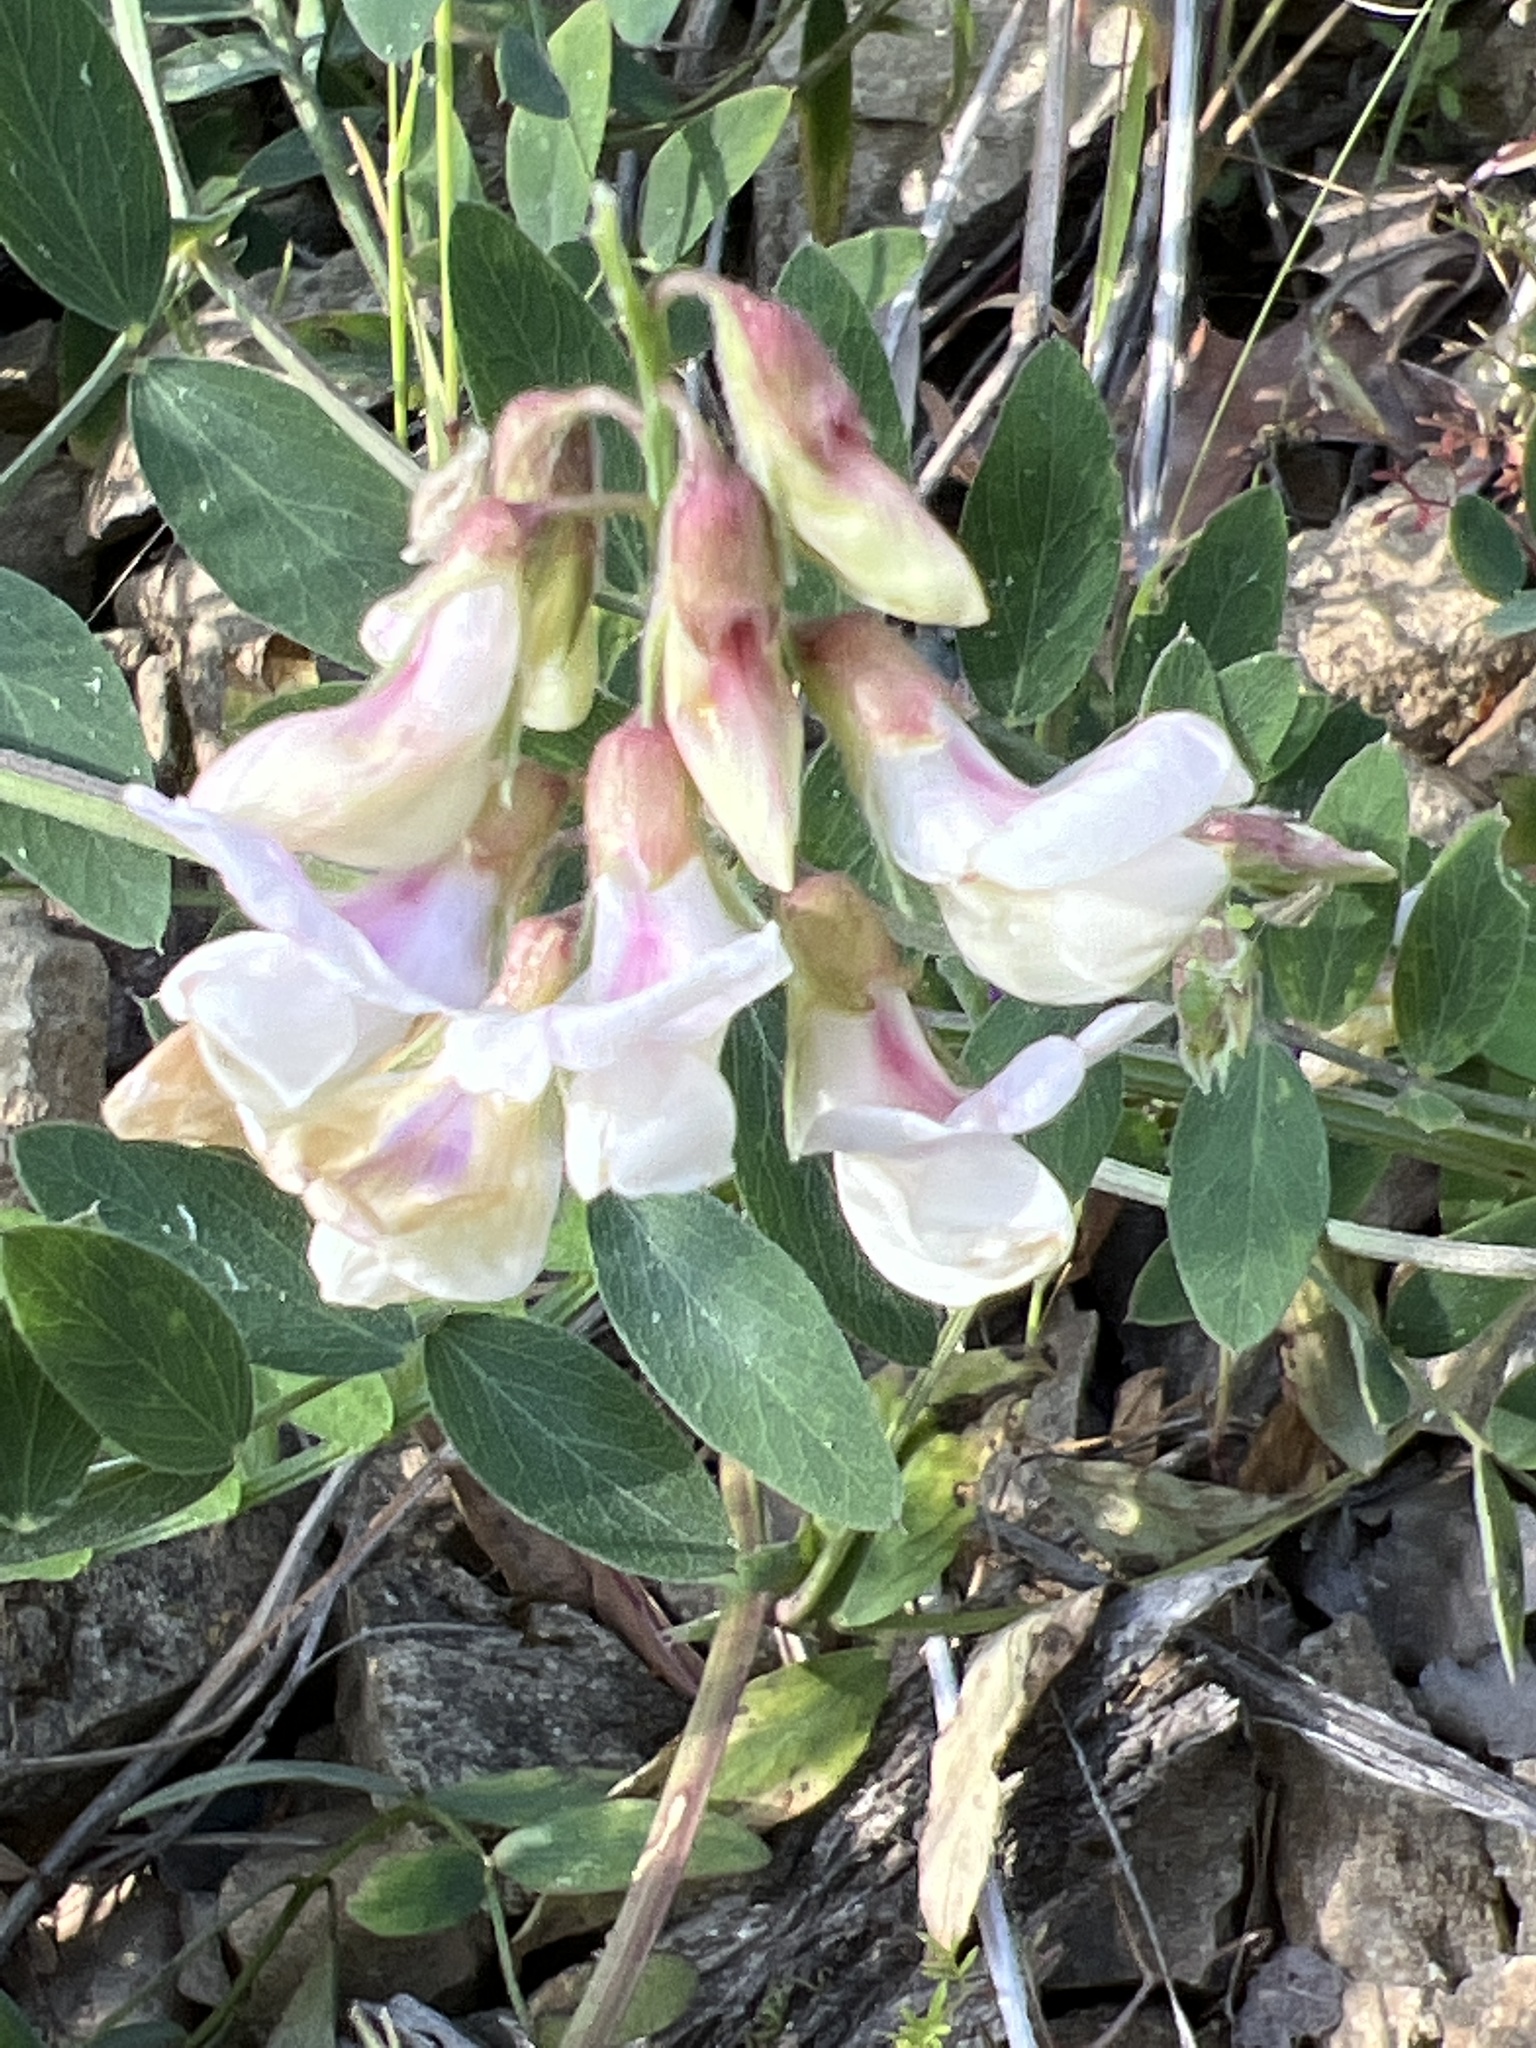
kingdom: Plantae
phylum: Tracheophyta
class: Magnoliopsida
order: Fabales
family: Fabaceae
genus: Lathyrus
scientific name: Lathyrus vestitus
